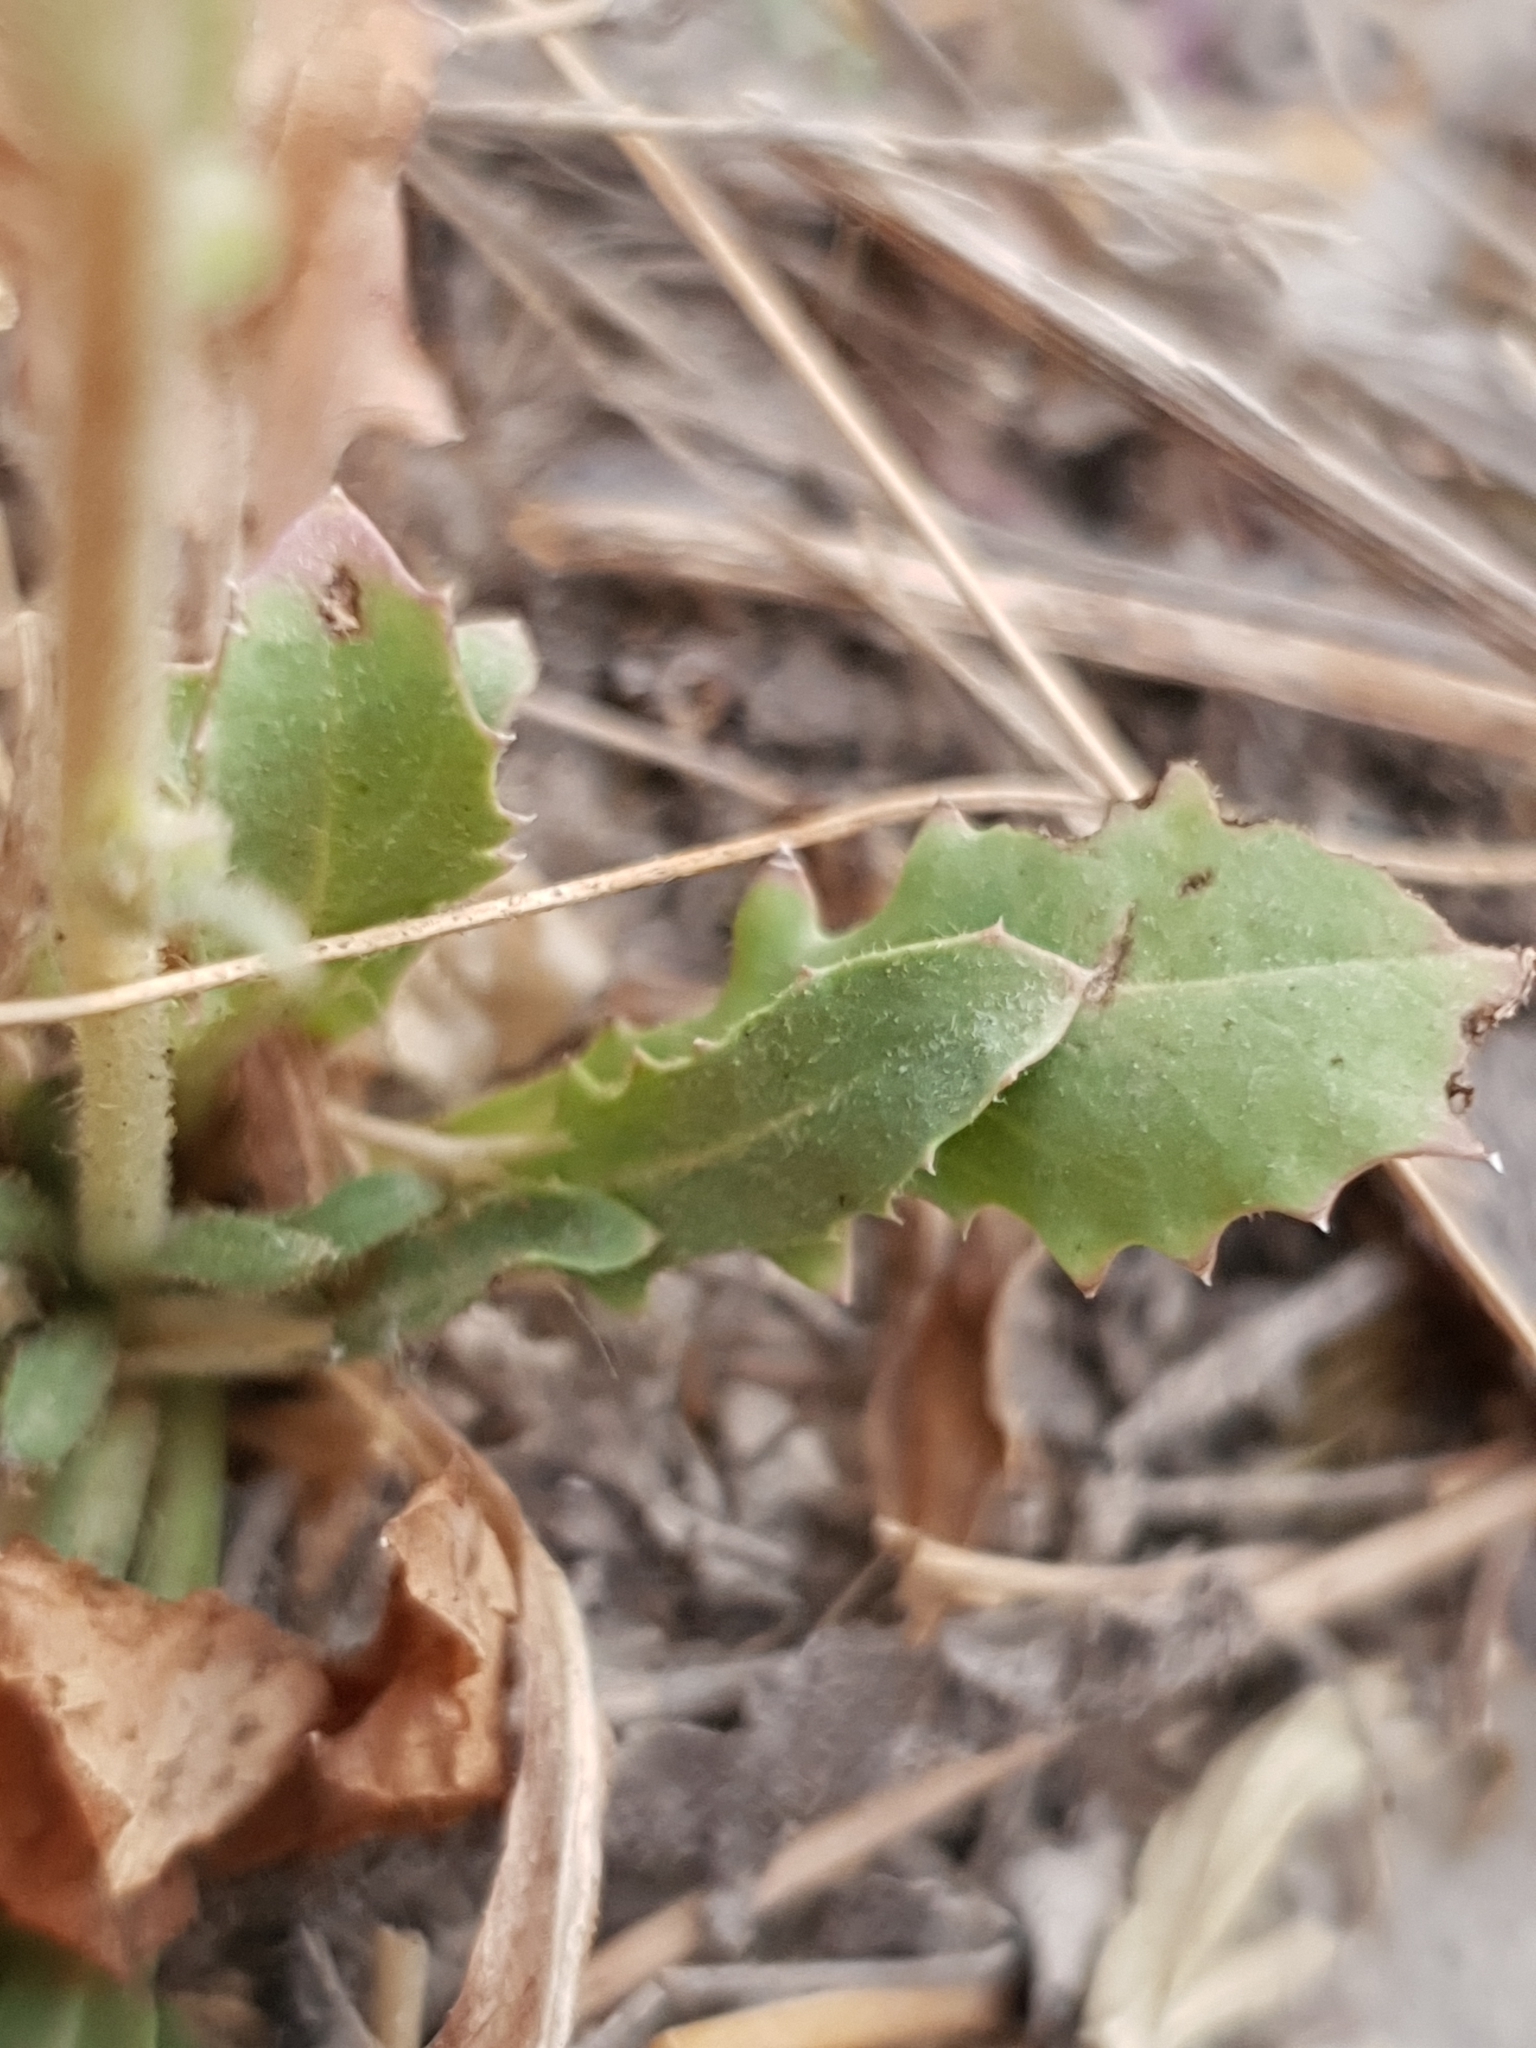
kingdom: Plantae
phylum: Tracheophyta
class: Magnoliopsida
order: Asterales
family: Asteraceae
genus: Crepis
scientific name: Crepis bursifolia
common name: Italian hawksbeard
